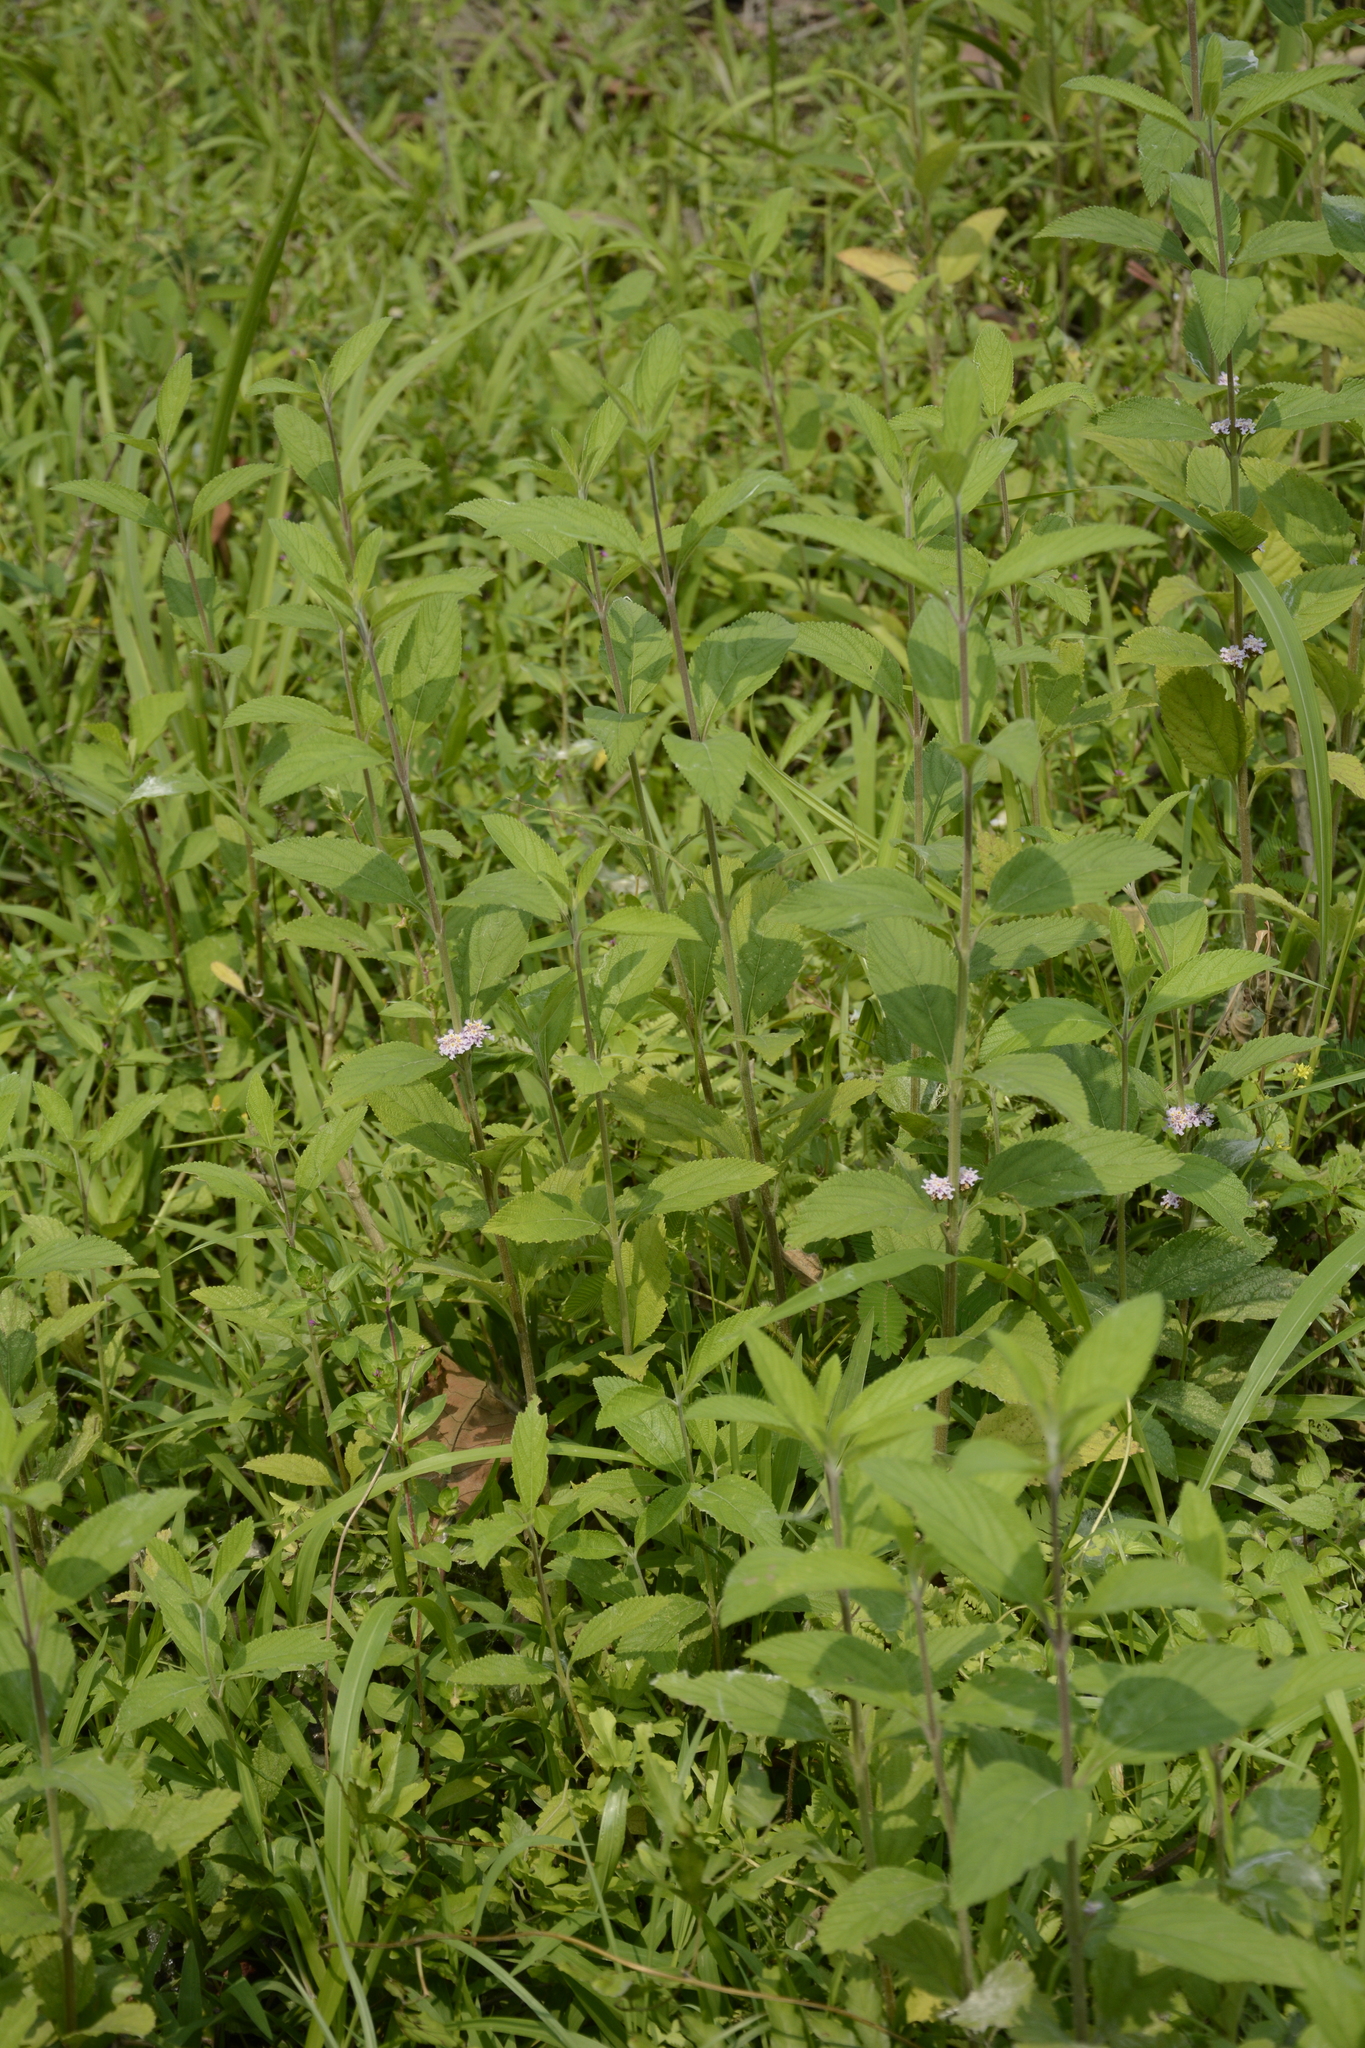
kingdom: Plantae
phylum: Tracheophyta
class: Magnoliopsida
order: Lamiales
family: Verbenaceae
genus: Lippia
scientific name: Lippia alba
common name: Bushy matgrass
